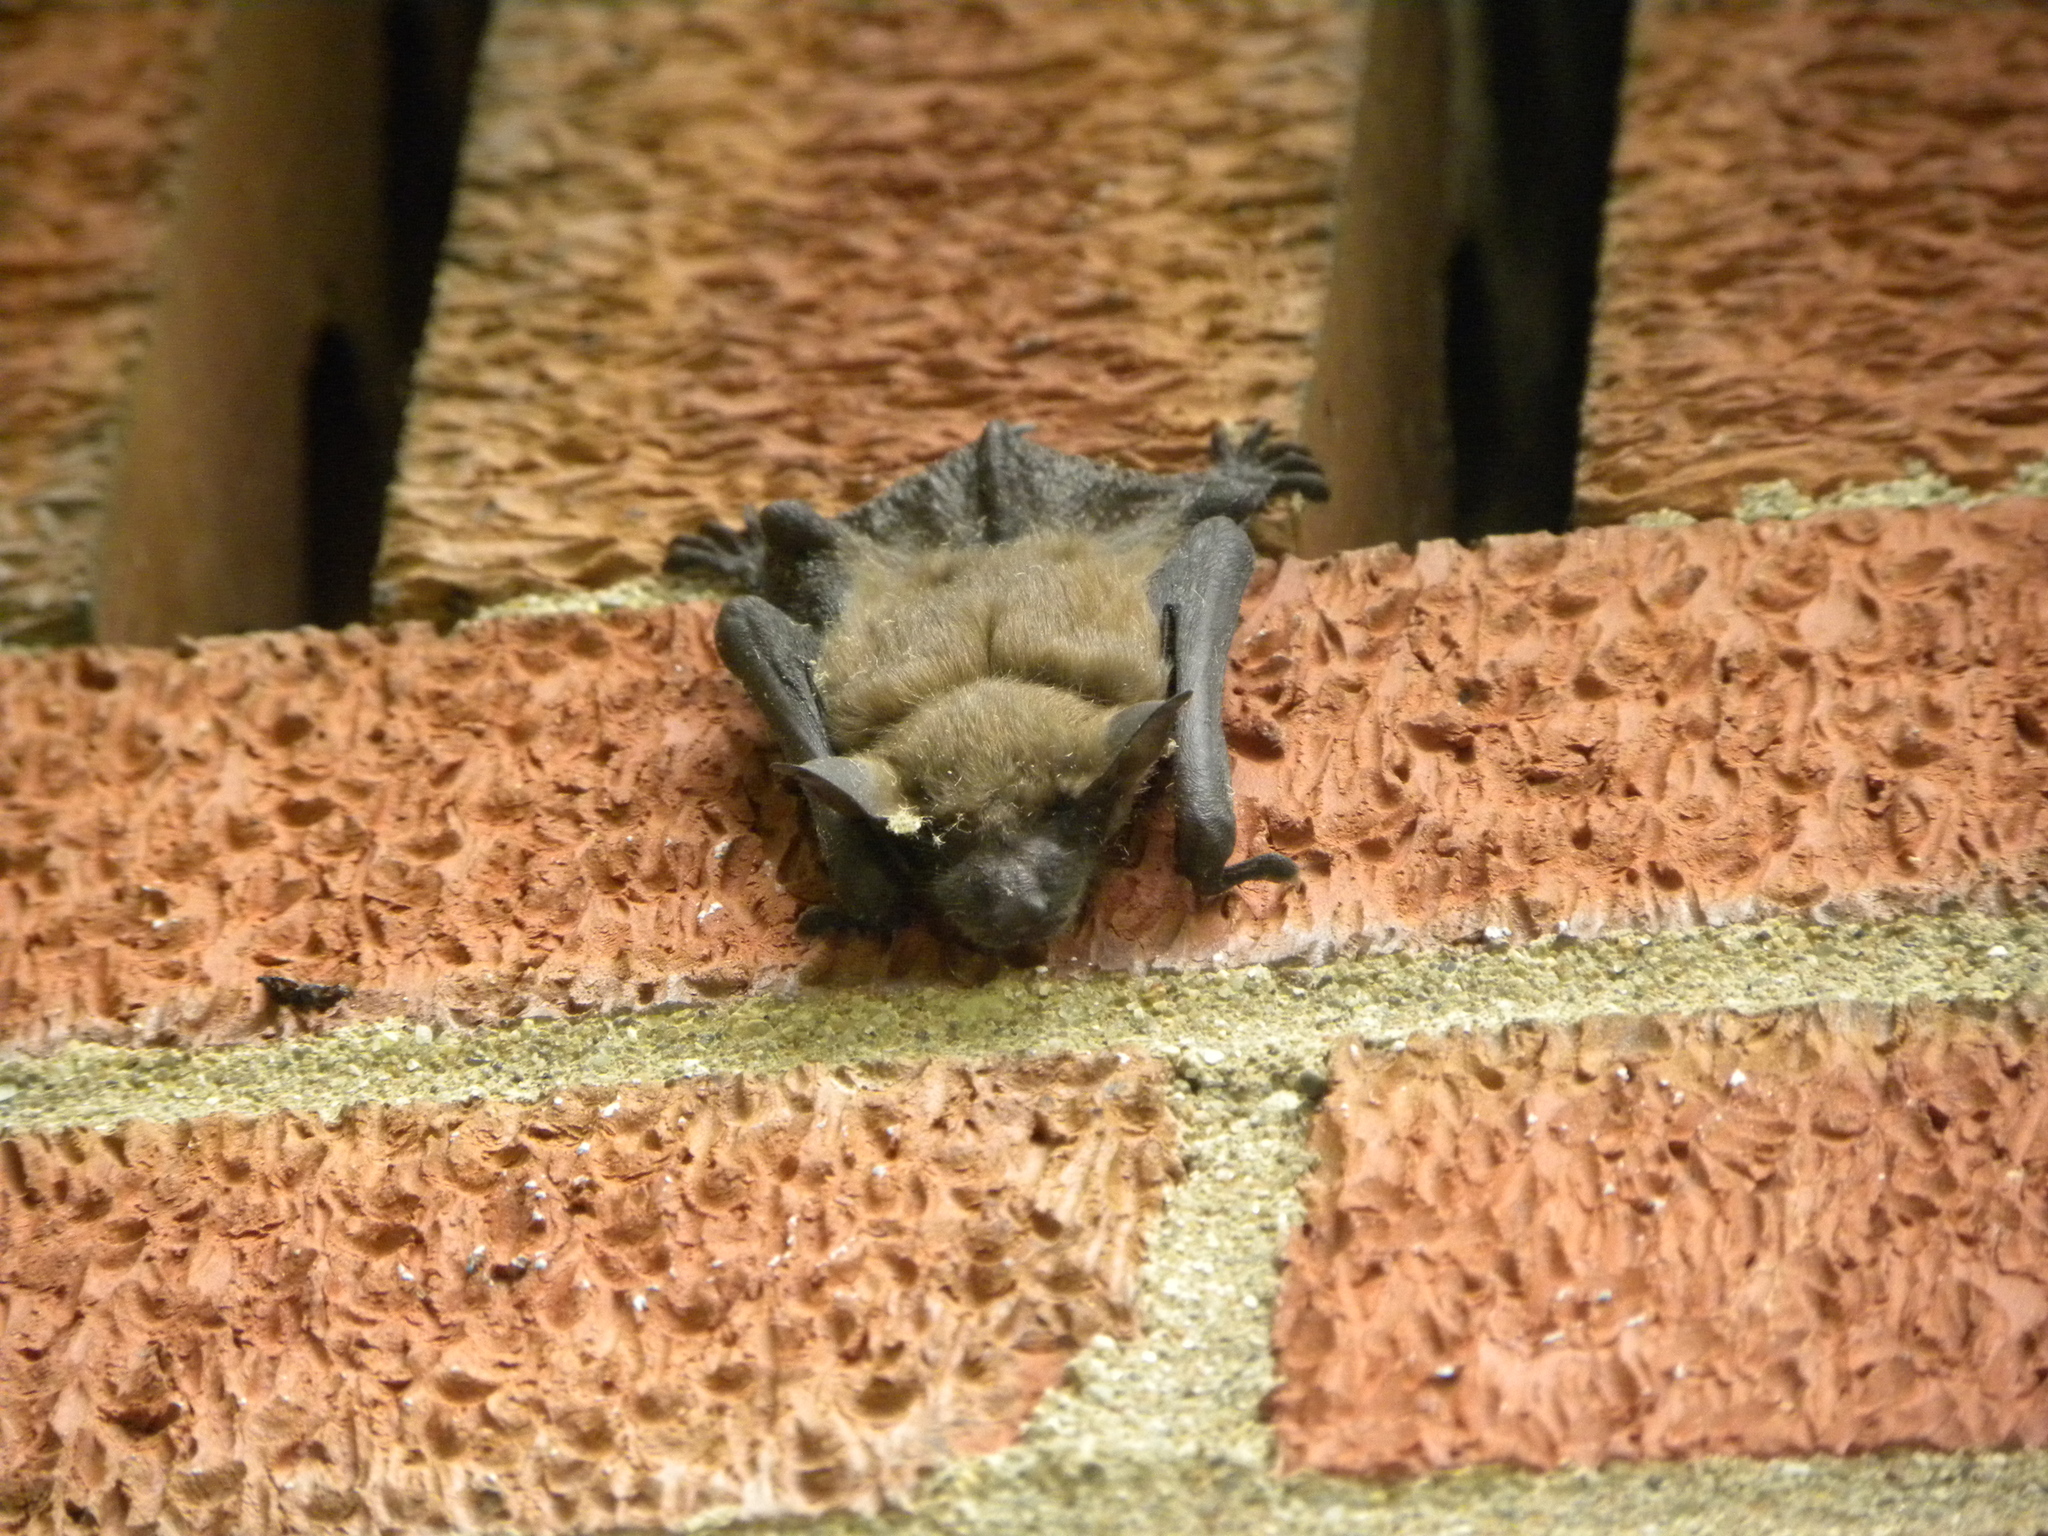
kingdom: Animalia
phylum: Chordata
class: Mammalia
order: Chiroptera
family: Vespertilionidae
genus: Eptesicus
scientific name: Eptesicus fuscus
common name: Big brown bat
